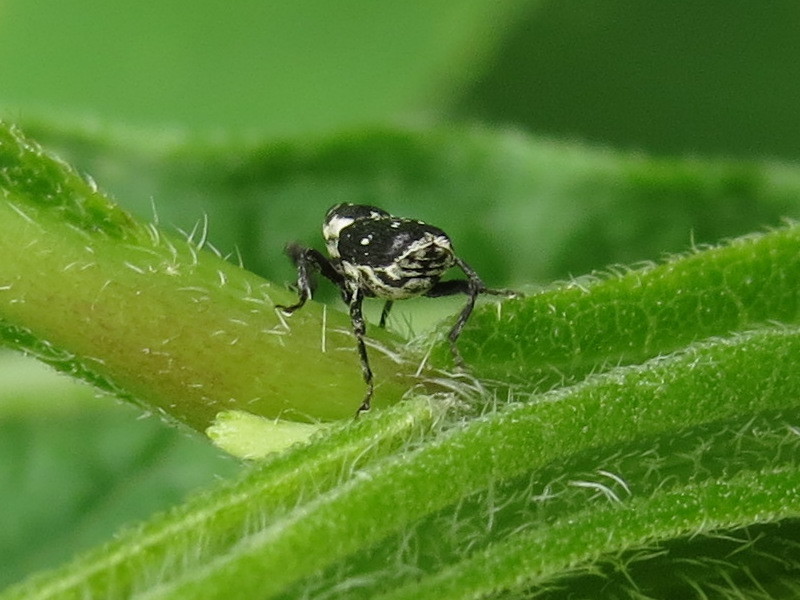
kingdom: Animalia
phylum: Arthropoda
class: Insecta
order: Coleoptera
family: Curculionidae
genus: Cylindrocopturus
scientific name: Cylindrocopturus quercus
